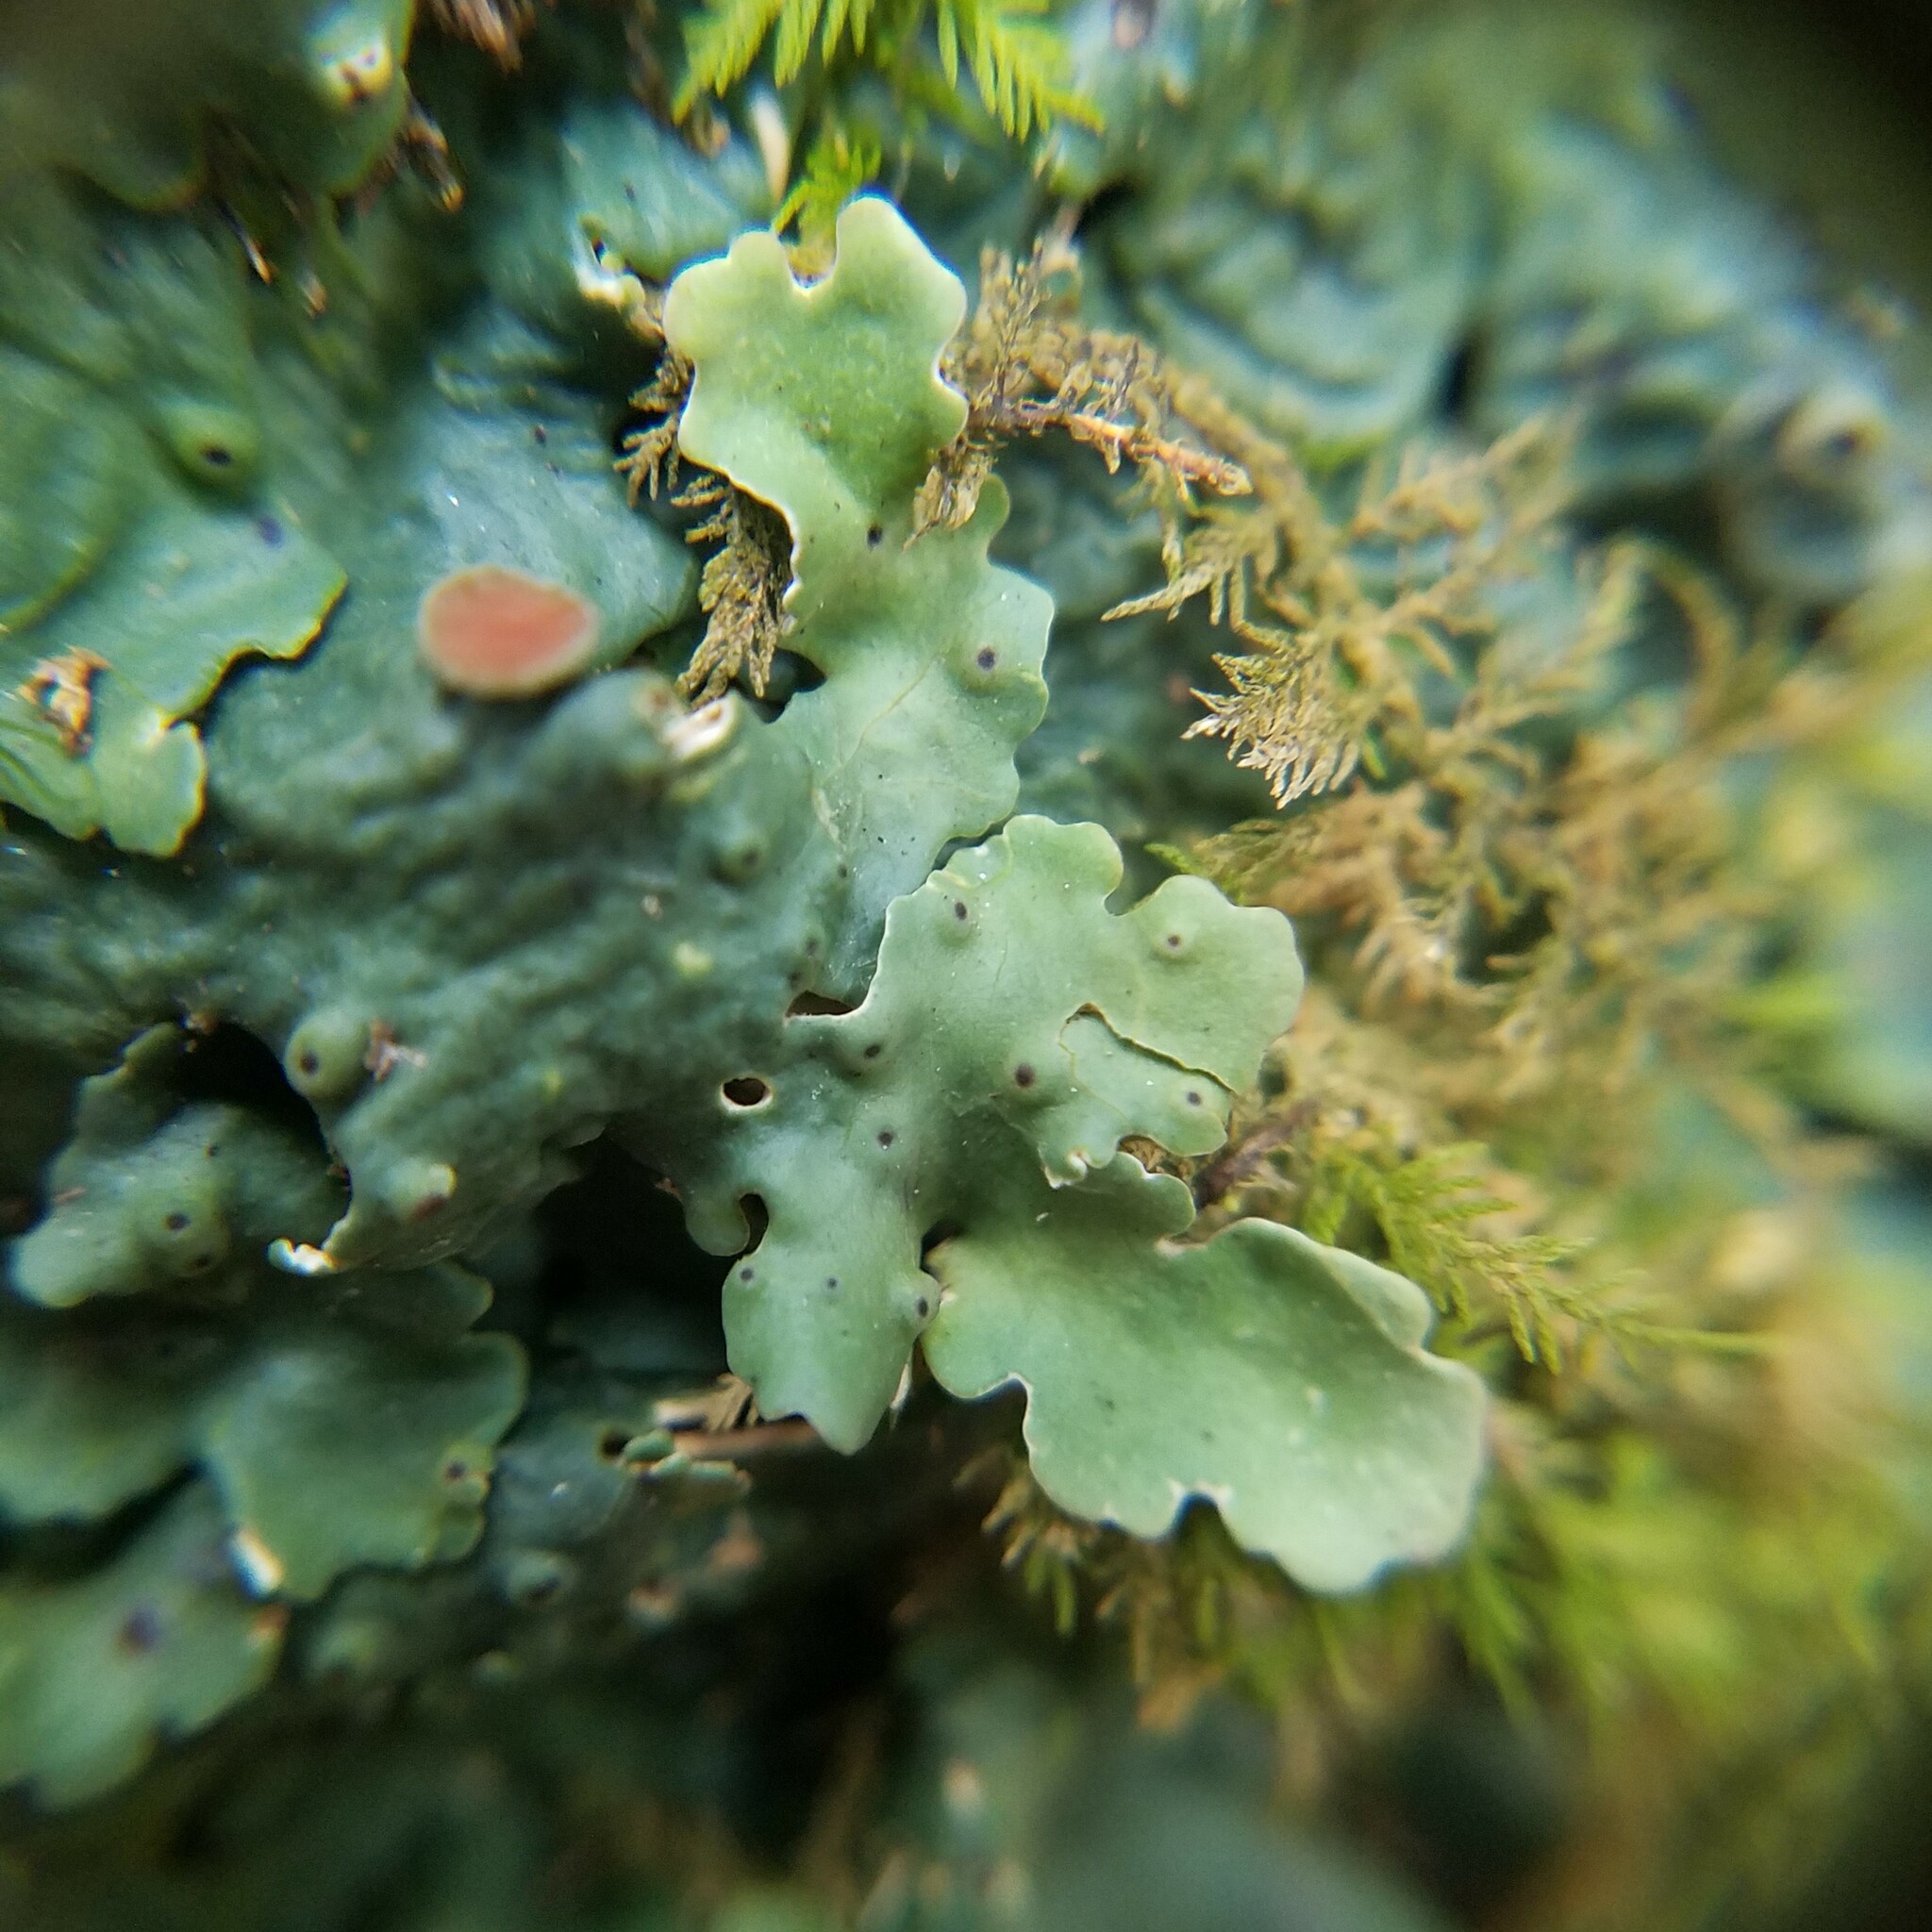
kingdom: Fungi
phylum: Ascomycota
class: Lecanoromycetes
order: Peltigerales
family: Lobariaceae
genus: Ricasolia
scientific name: Ricasolia quercizans
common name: Smooth lungwort
